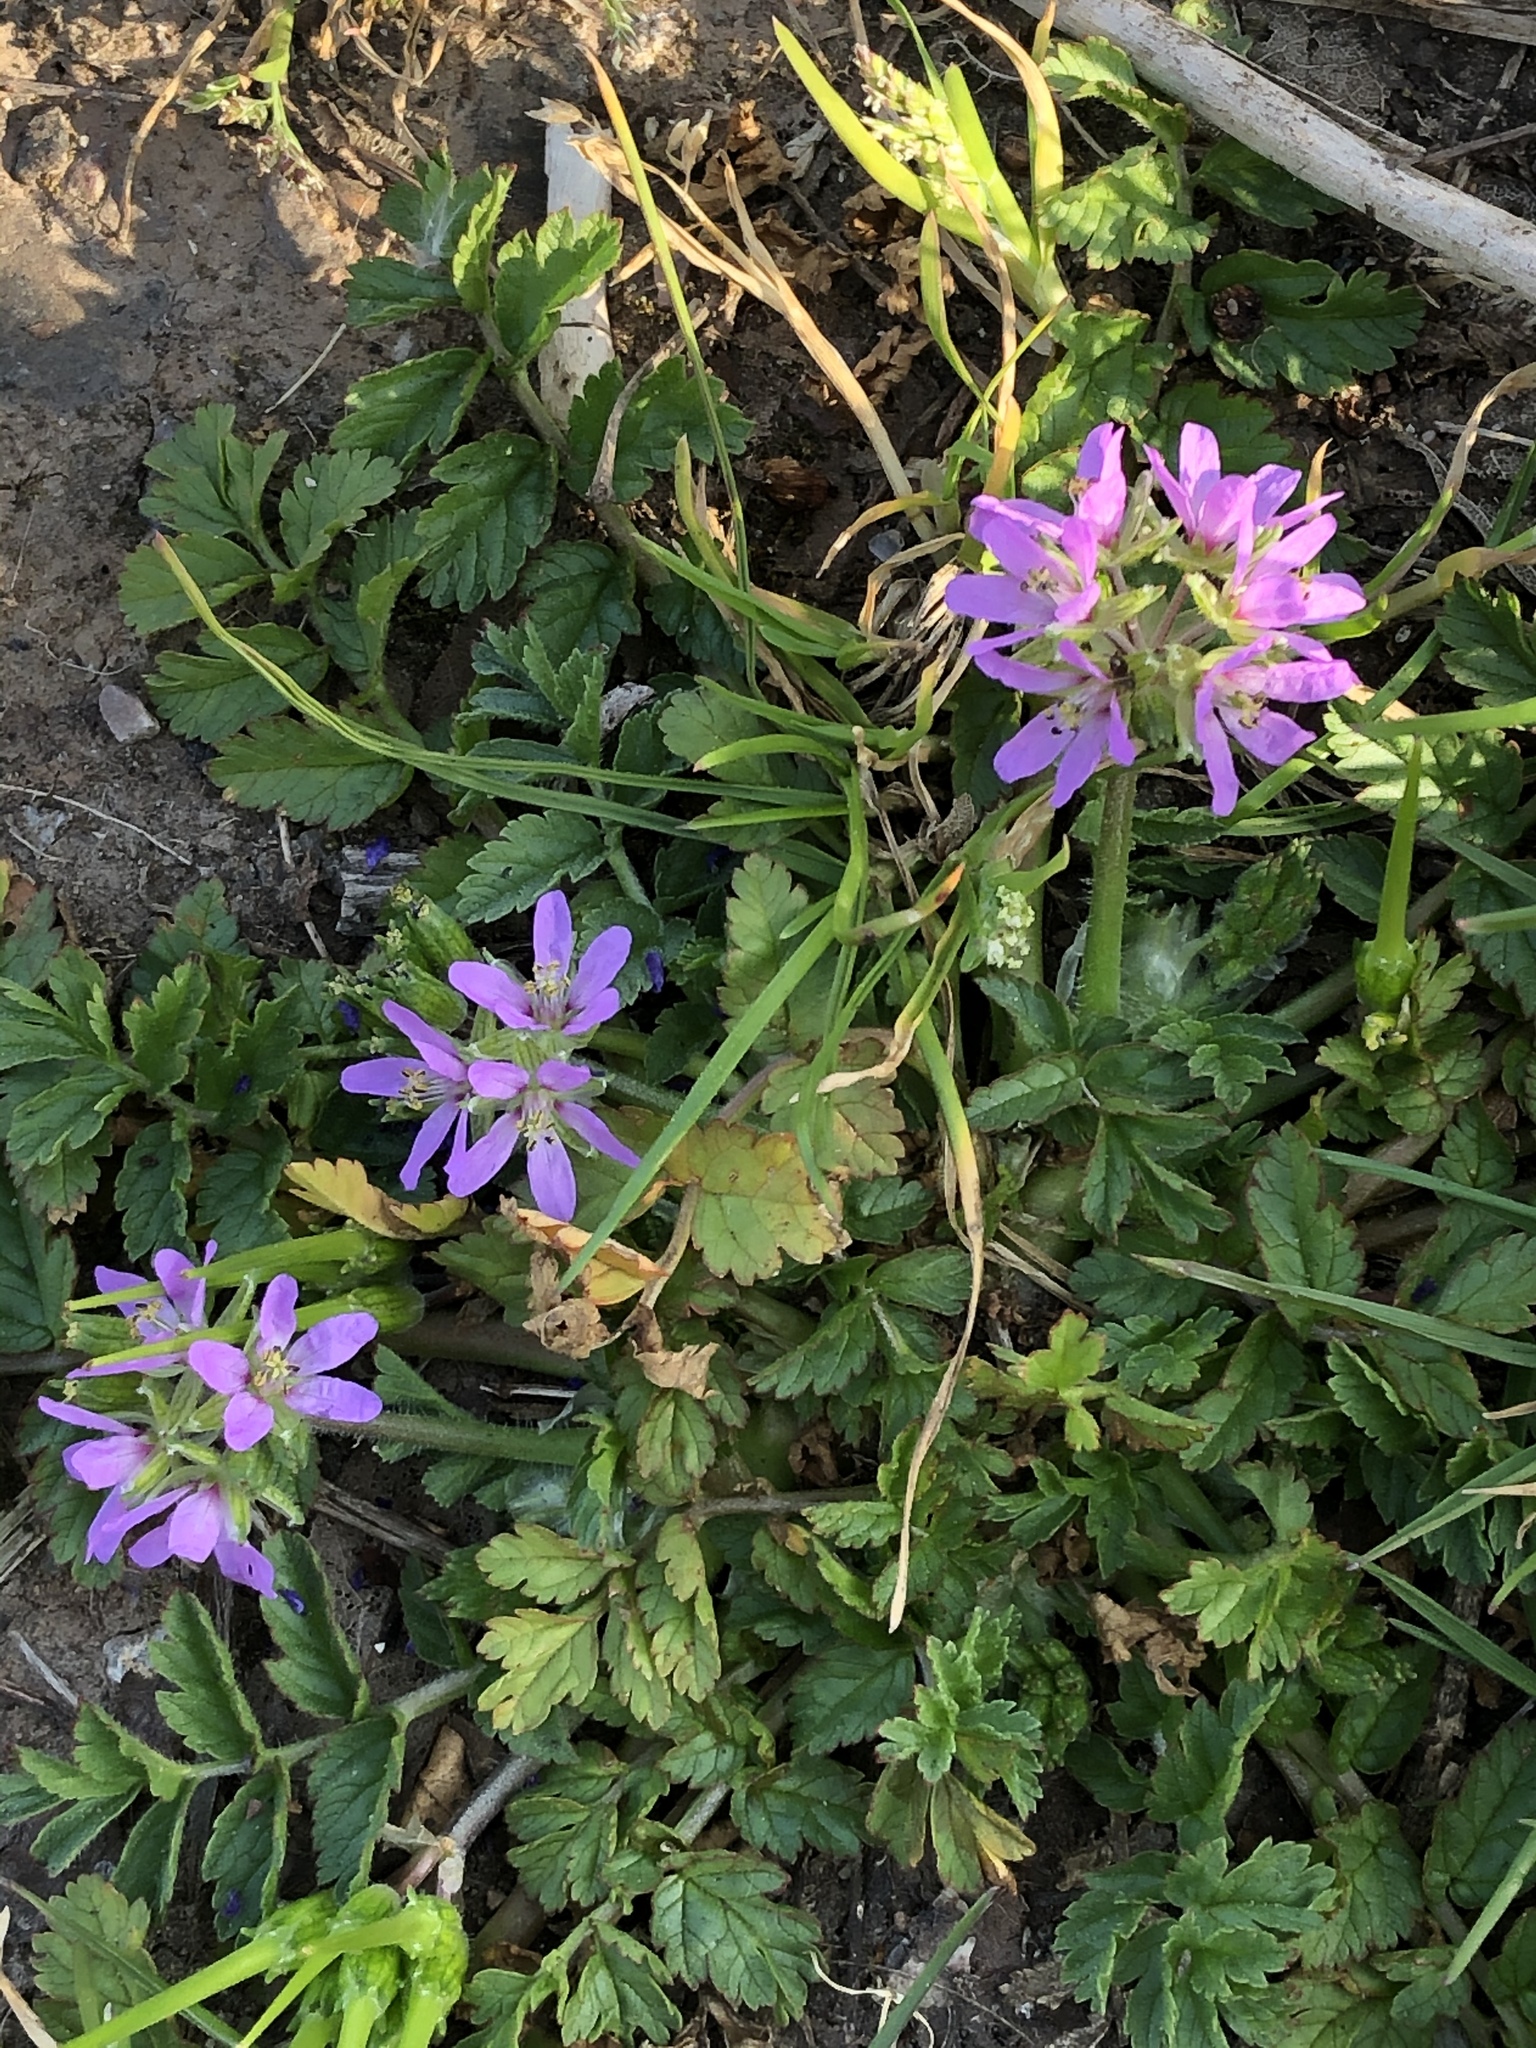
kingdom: Plantae
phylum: Tracheophyta
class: Magnoliopsida
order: Geraniales
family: Geraniaceae
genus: Erodium
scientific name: Erodium moschatum
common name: Musk stork's-bill
